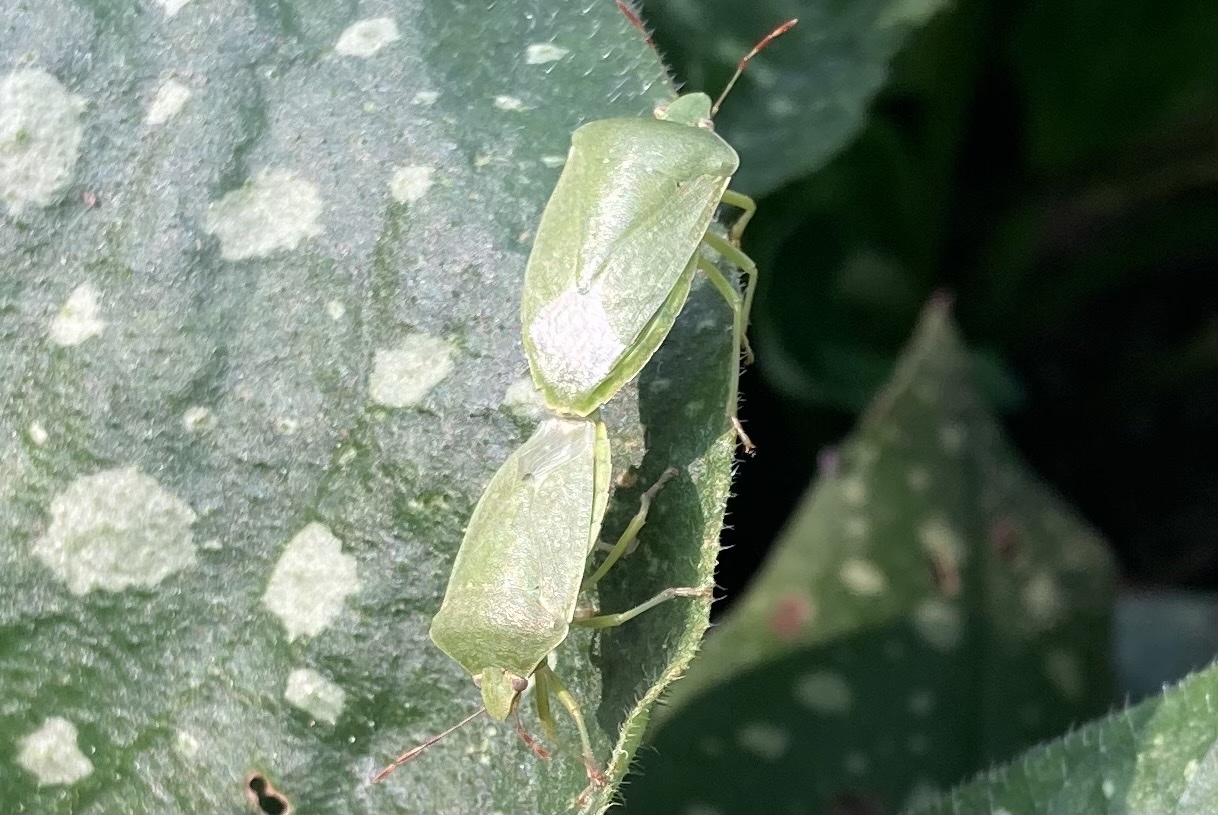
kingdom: Animalia
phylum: Arthropoda
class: Insecta
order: Hemiptera
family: Pentatomidae
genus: Nezara
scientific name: Nezara viridula
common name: Southern green stink bug
